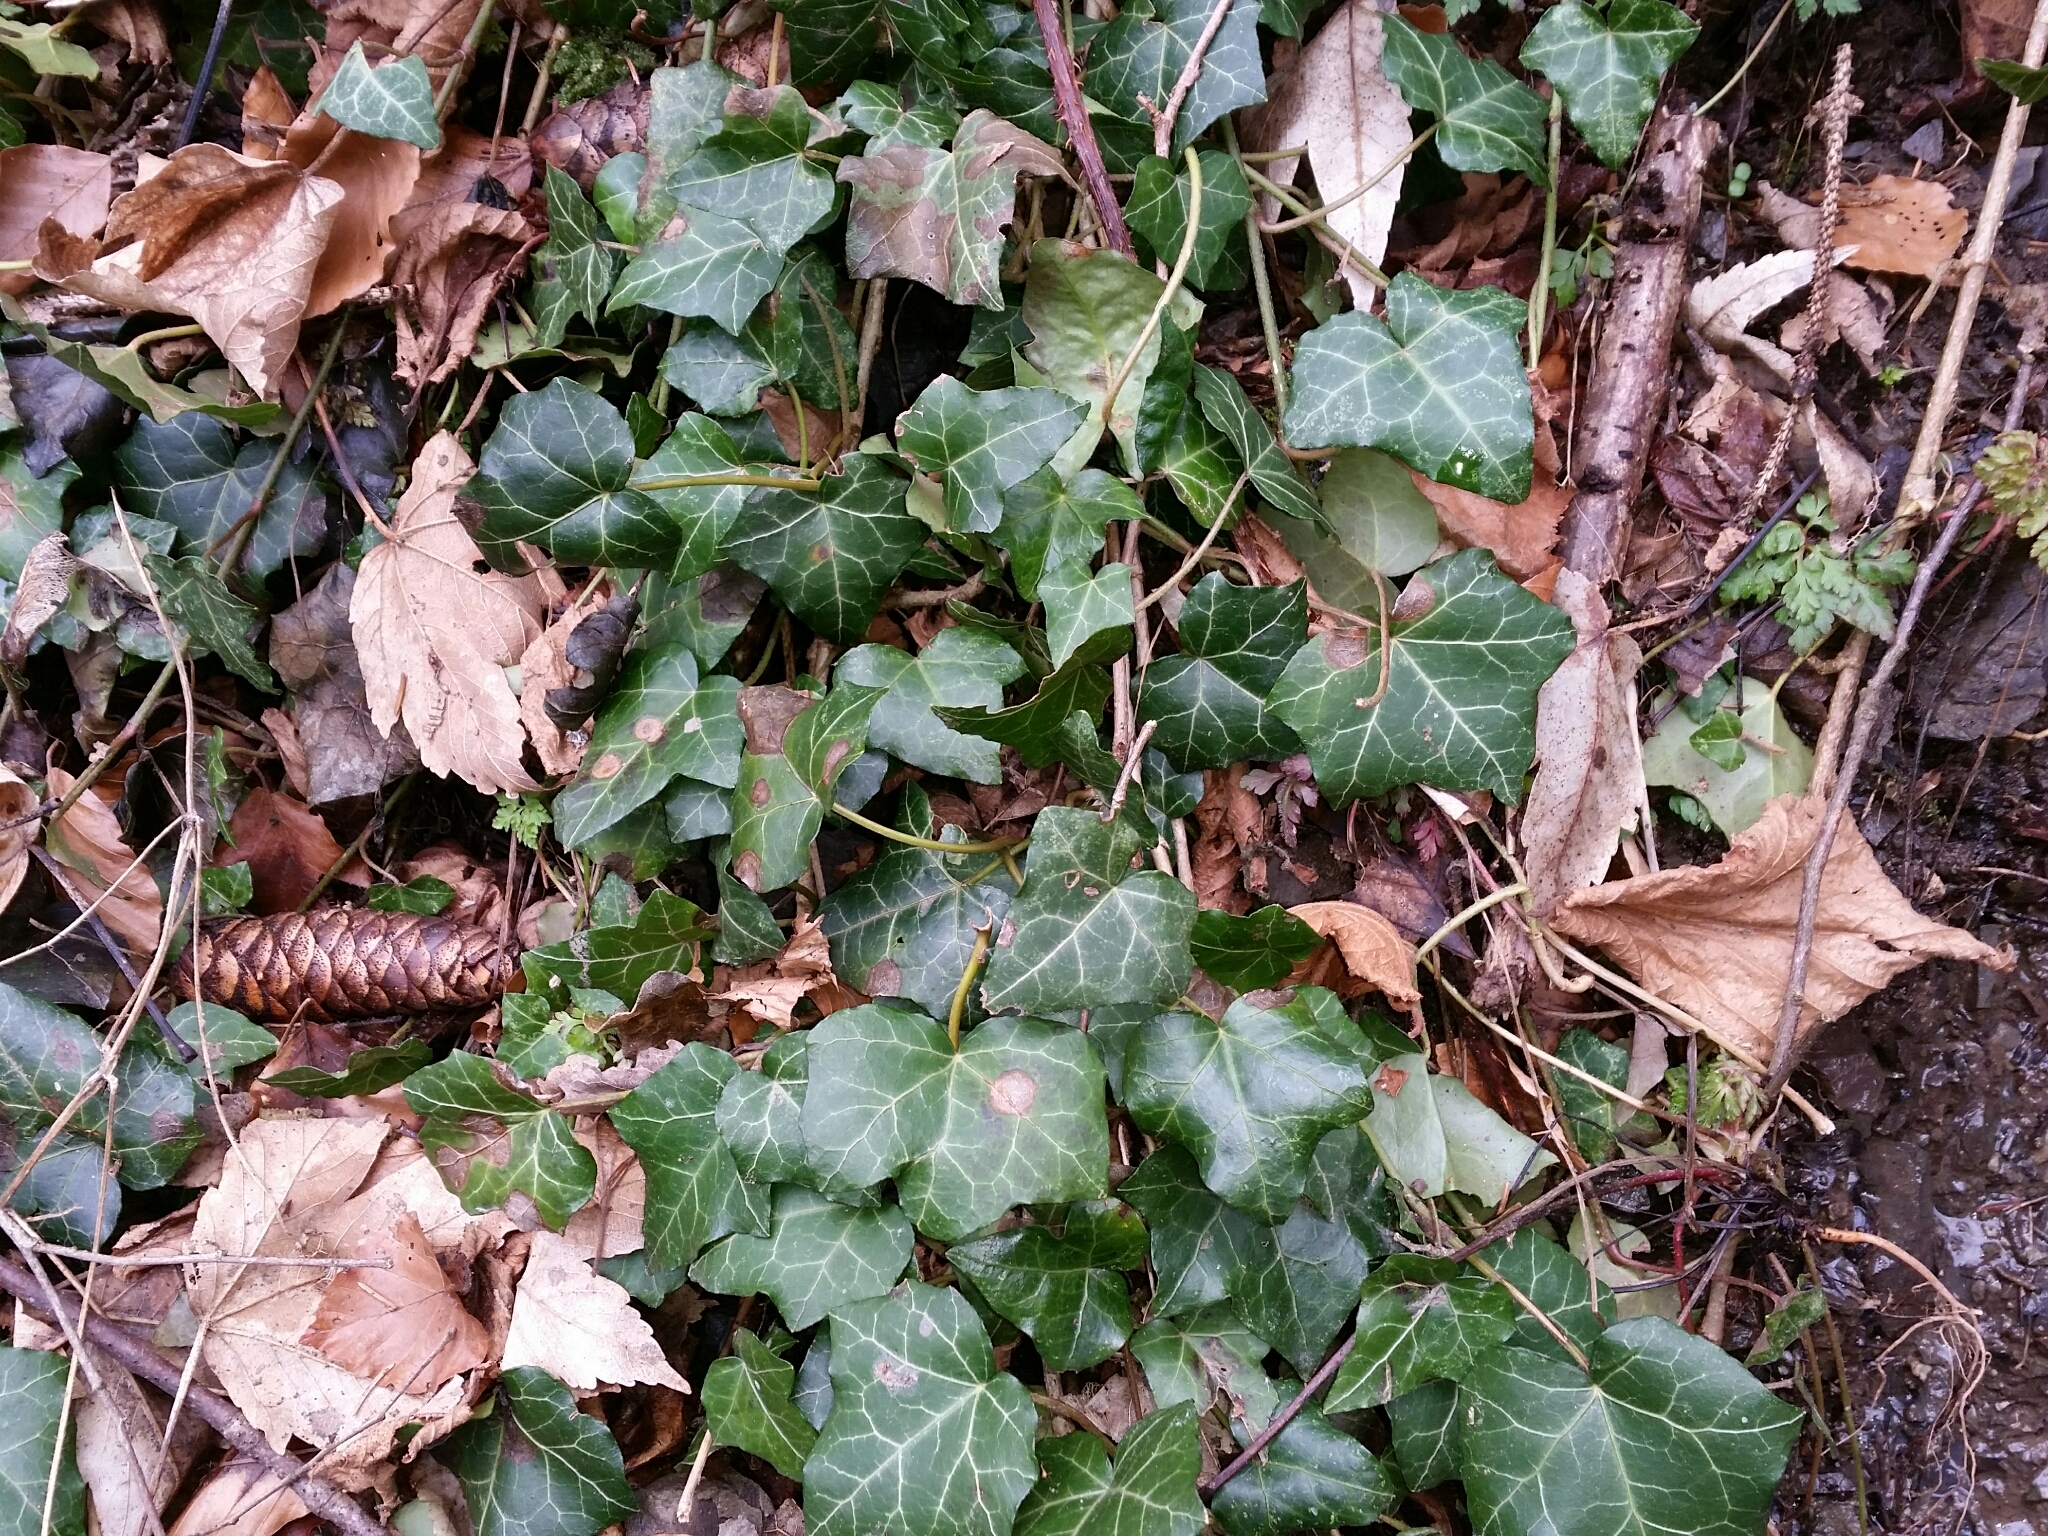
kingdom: Plantae
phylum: Tracheophyta
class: Magnoliopsida
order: Apiales
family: Araliaceae
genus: Hedera
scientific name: Hedera helix
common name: Ivy
